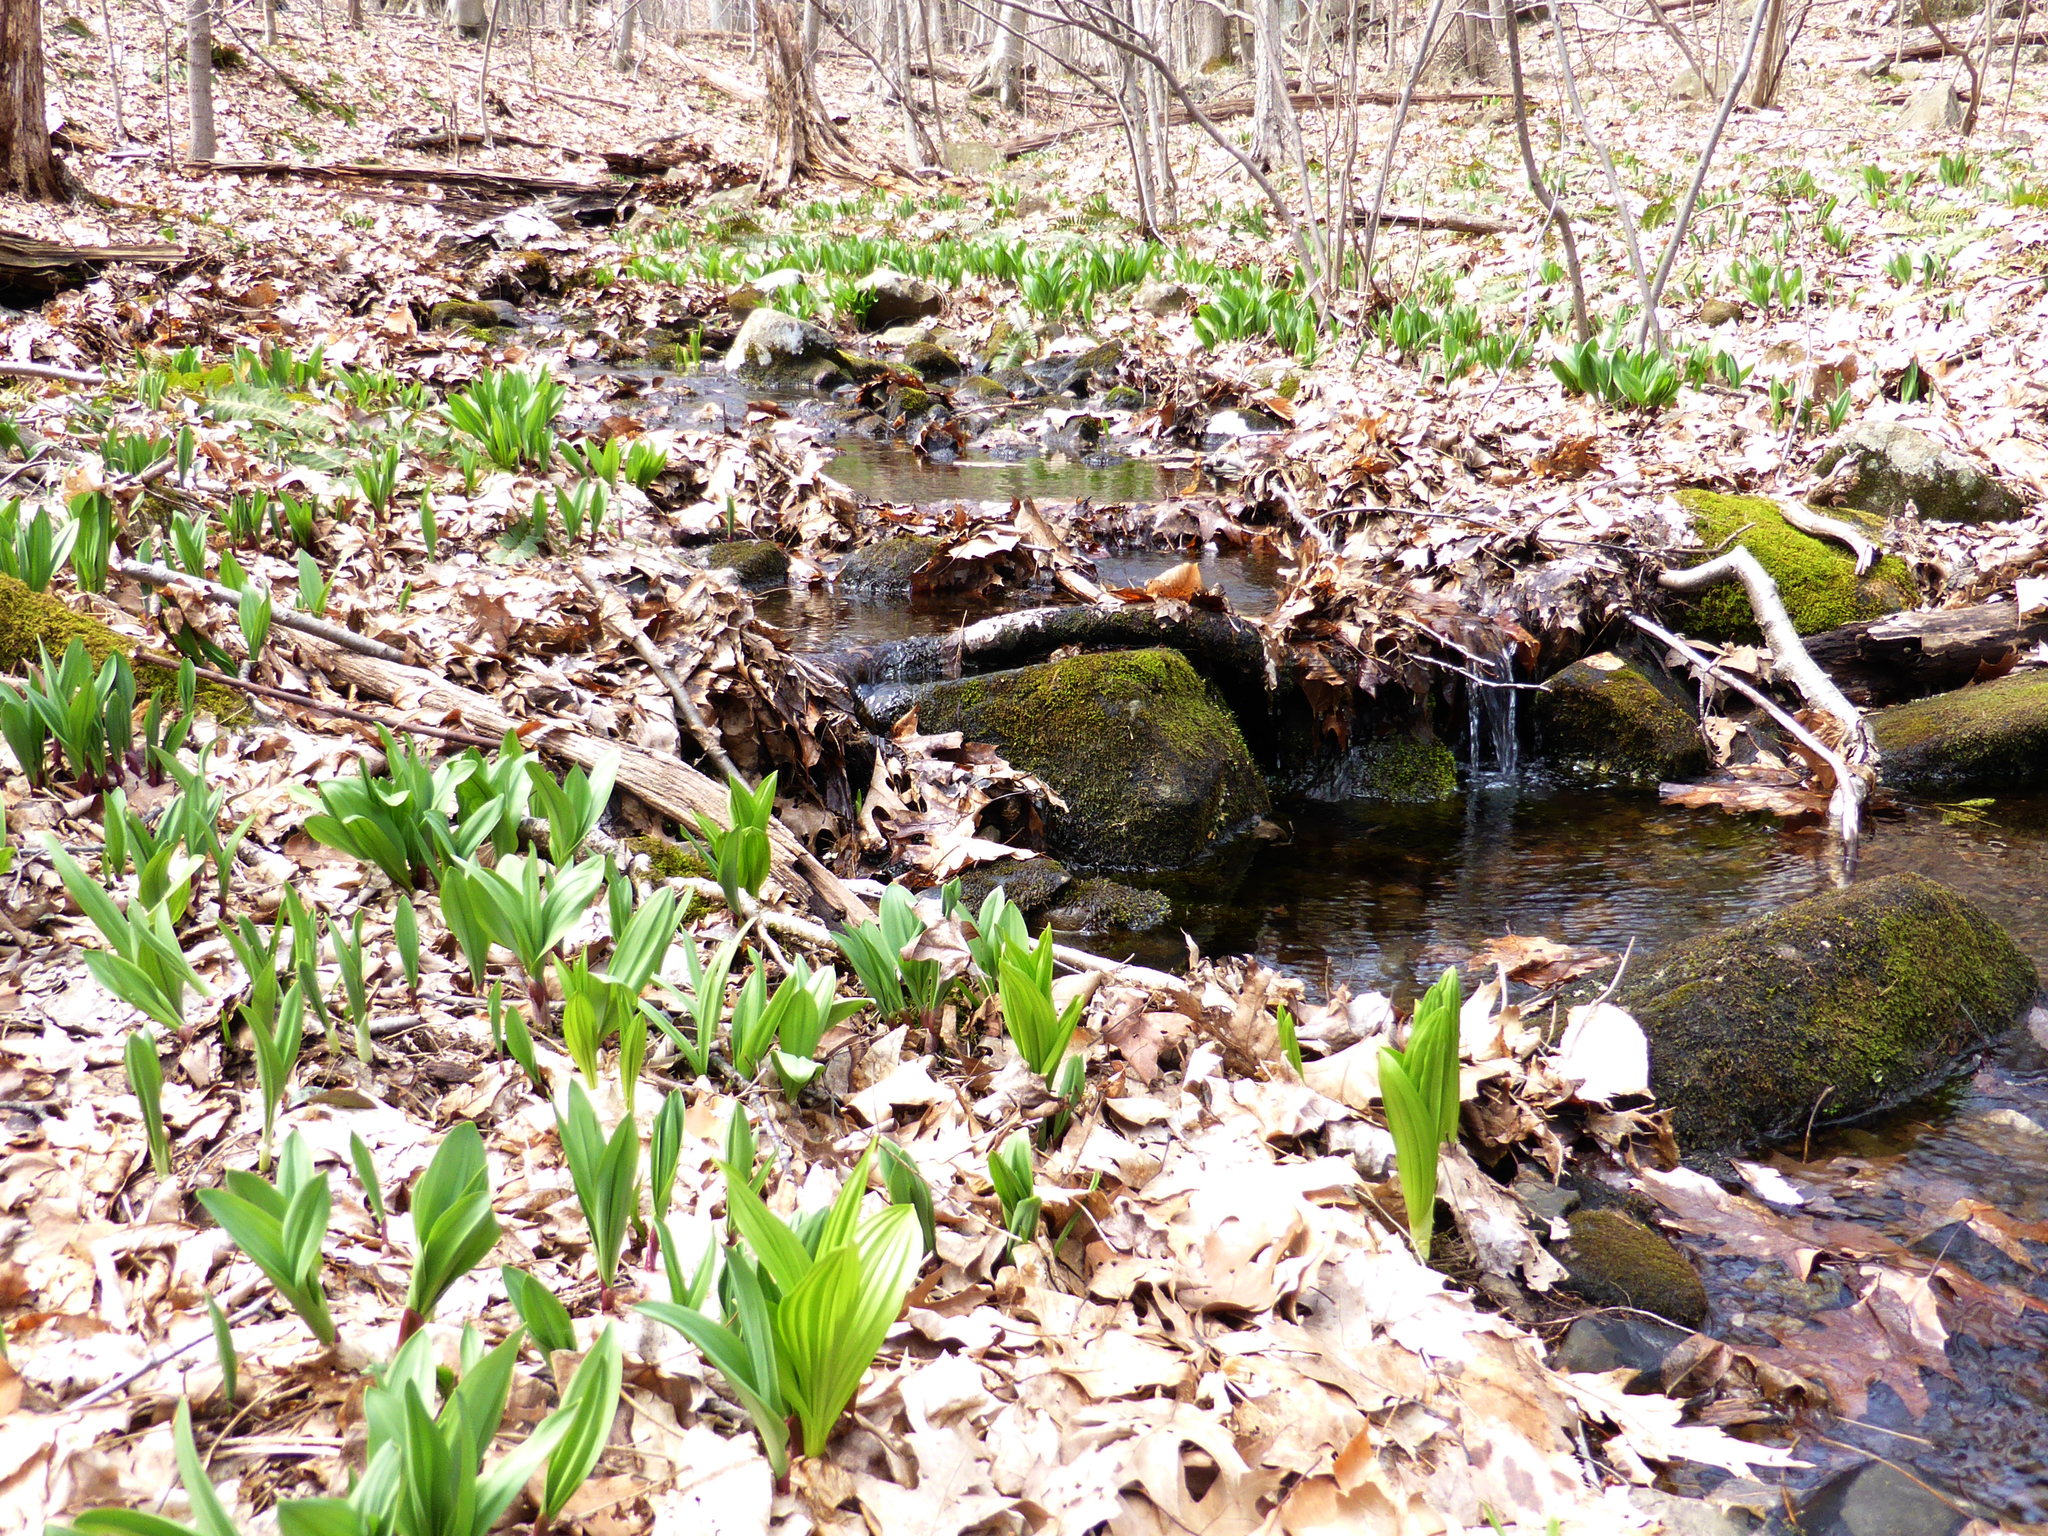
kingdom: Plantae
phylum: Tracheophyta
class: Liliopsida
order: Asparagales
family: Amaryllidaceae
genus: Allium
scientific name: Allium tricoccum
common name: Ramp
